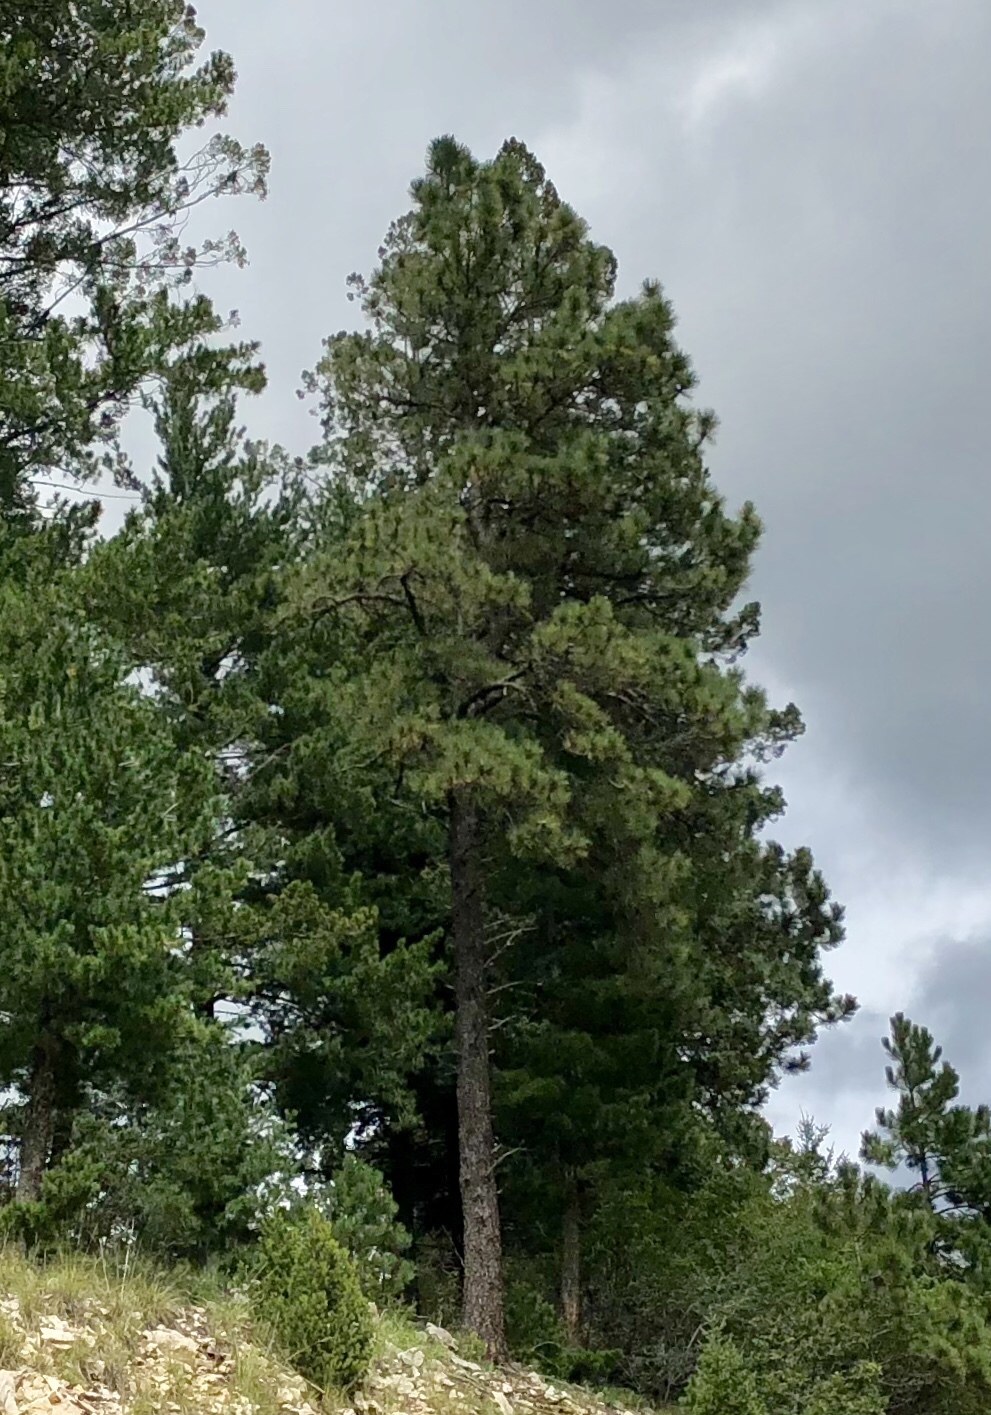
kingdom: Plantae
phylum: Tracheophyta
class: Pinopsida
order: Pinales
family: Pinaceae
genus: Pinus
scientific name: Pinus ponderosa
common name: Western yellow-pine
